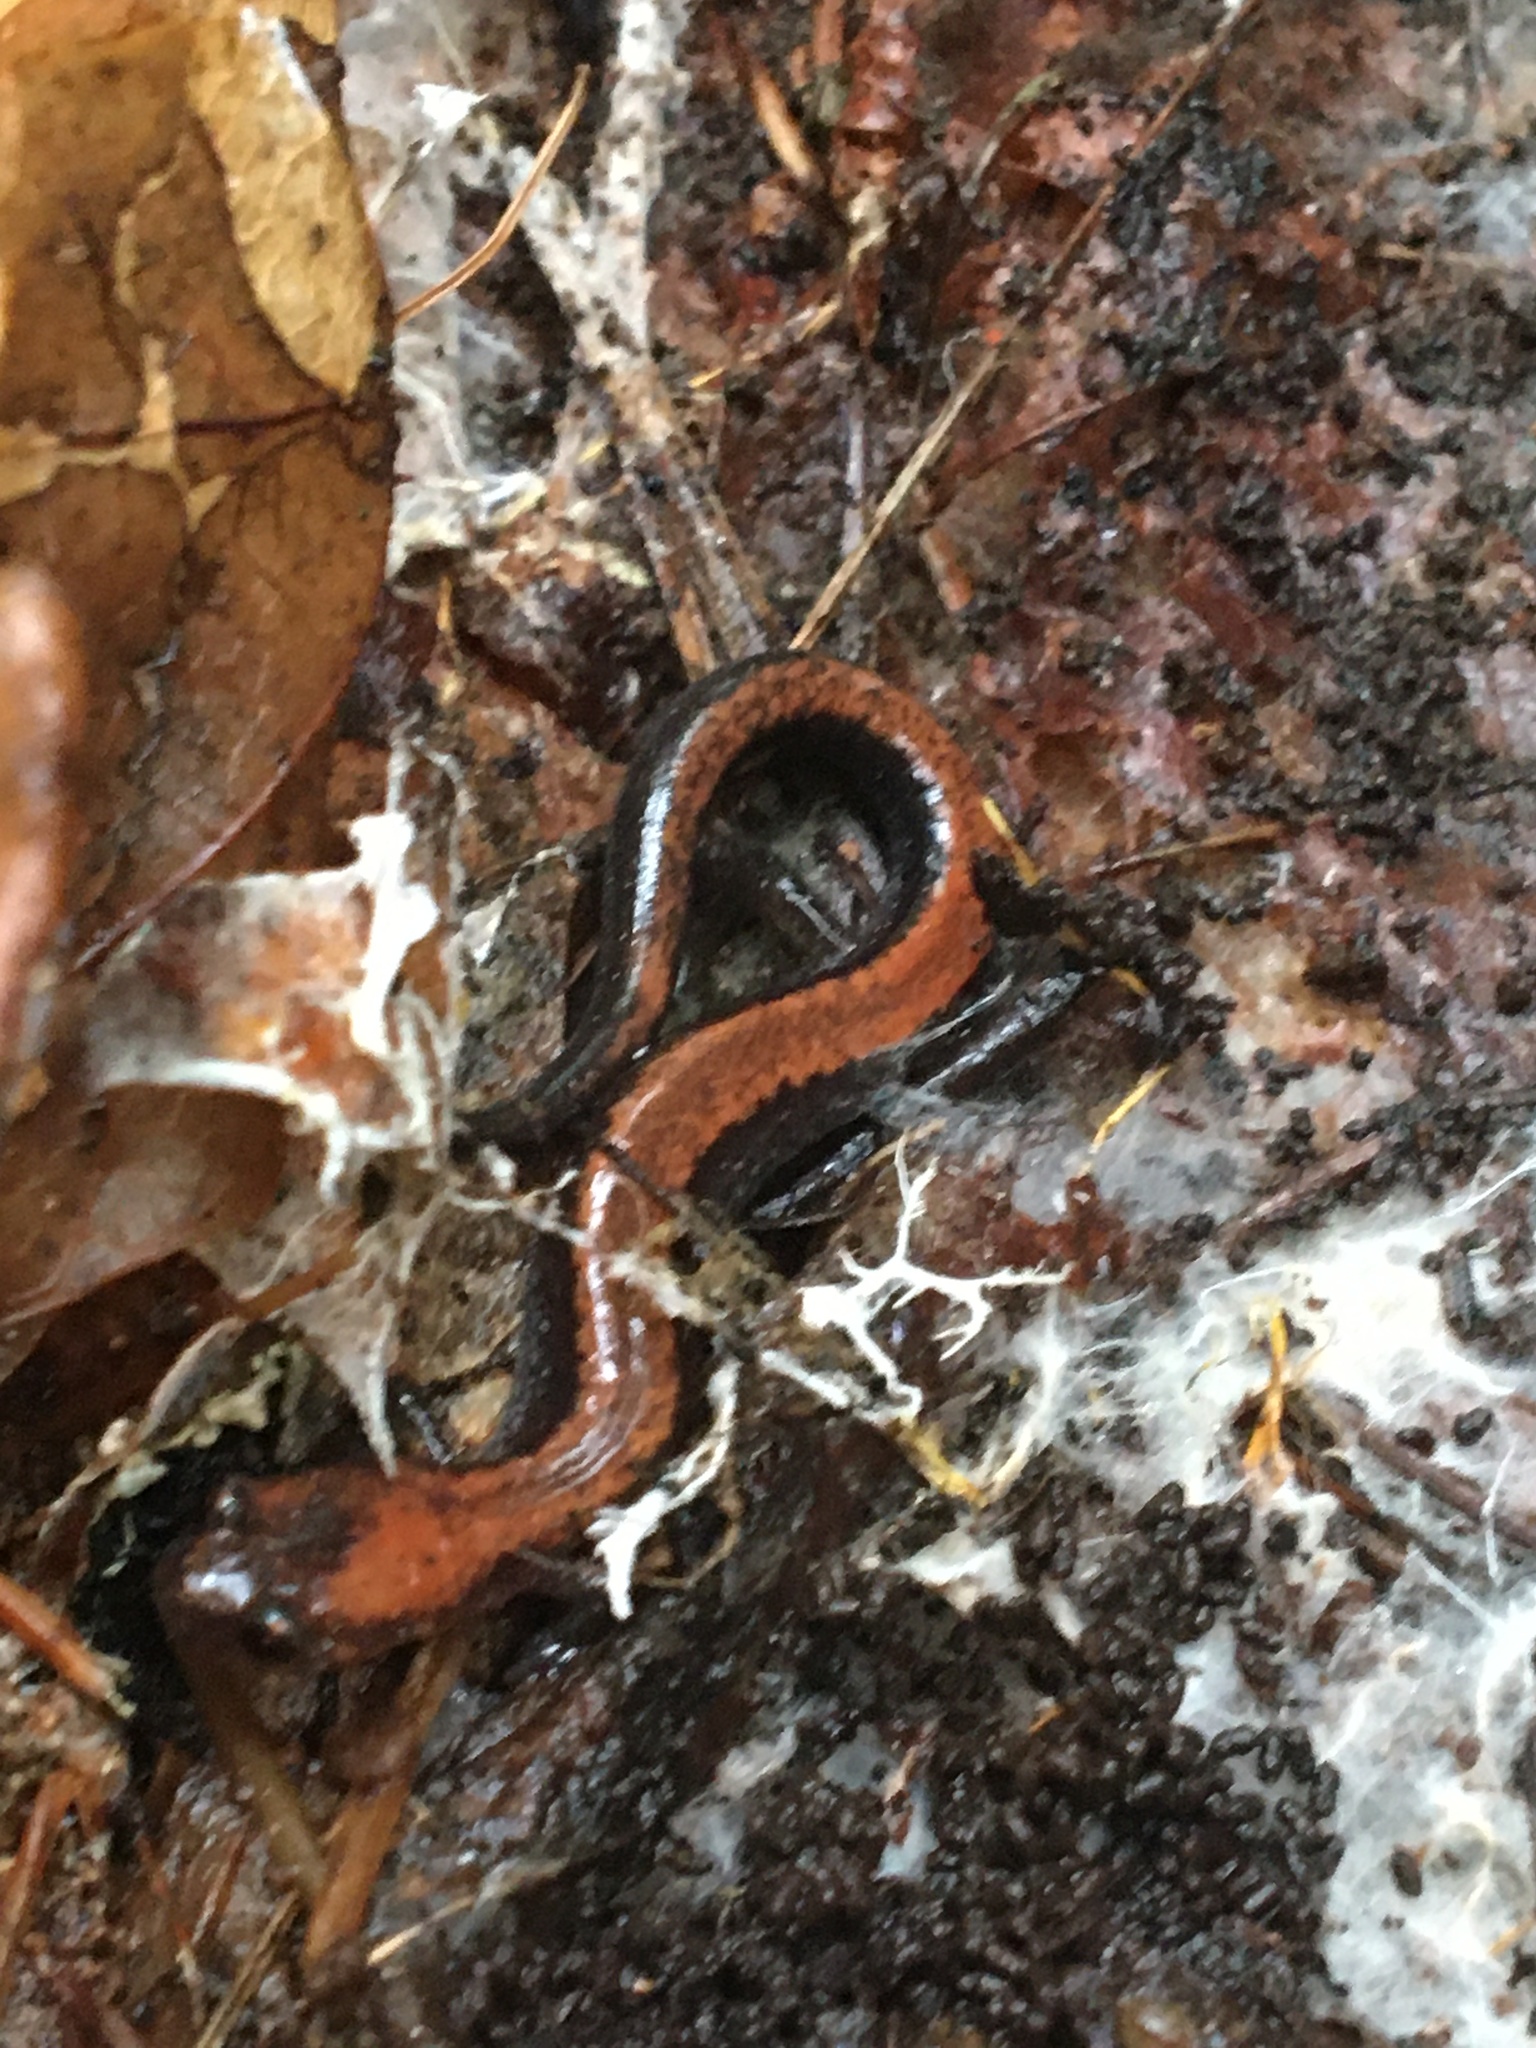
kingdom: Animalia
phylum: Chordata
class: Amphibia
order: Caudata
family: Plethodontidae
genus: Plethodon
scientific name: Plethodon cinereus
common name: Redback salamander
